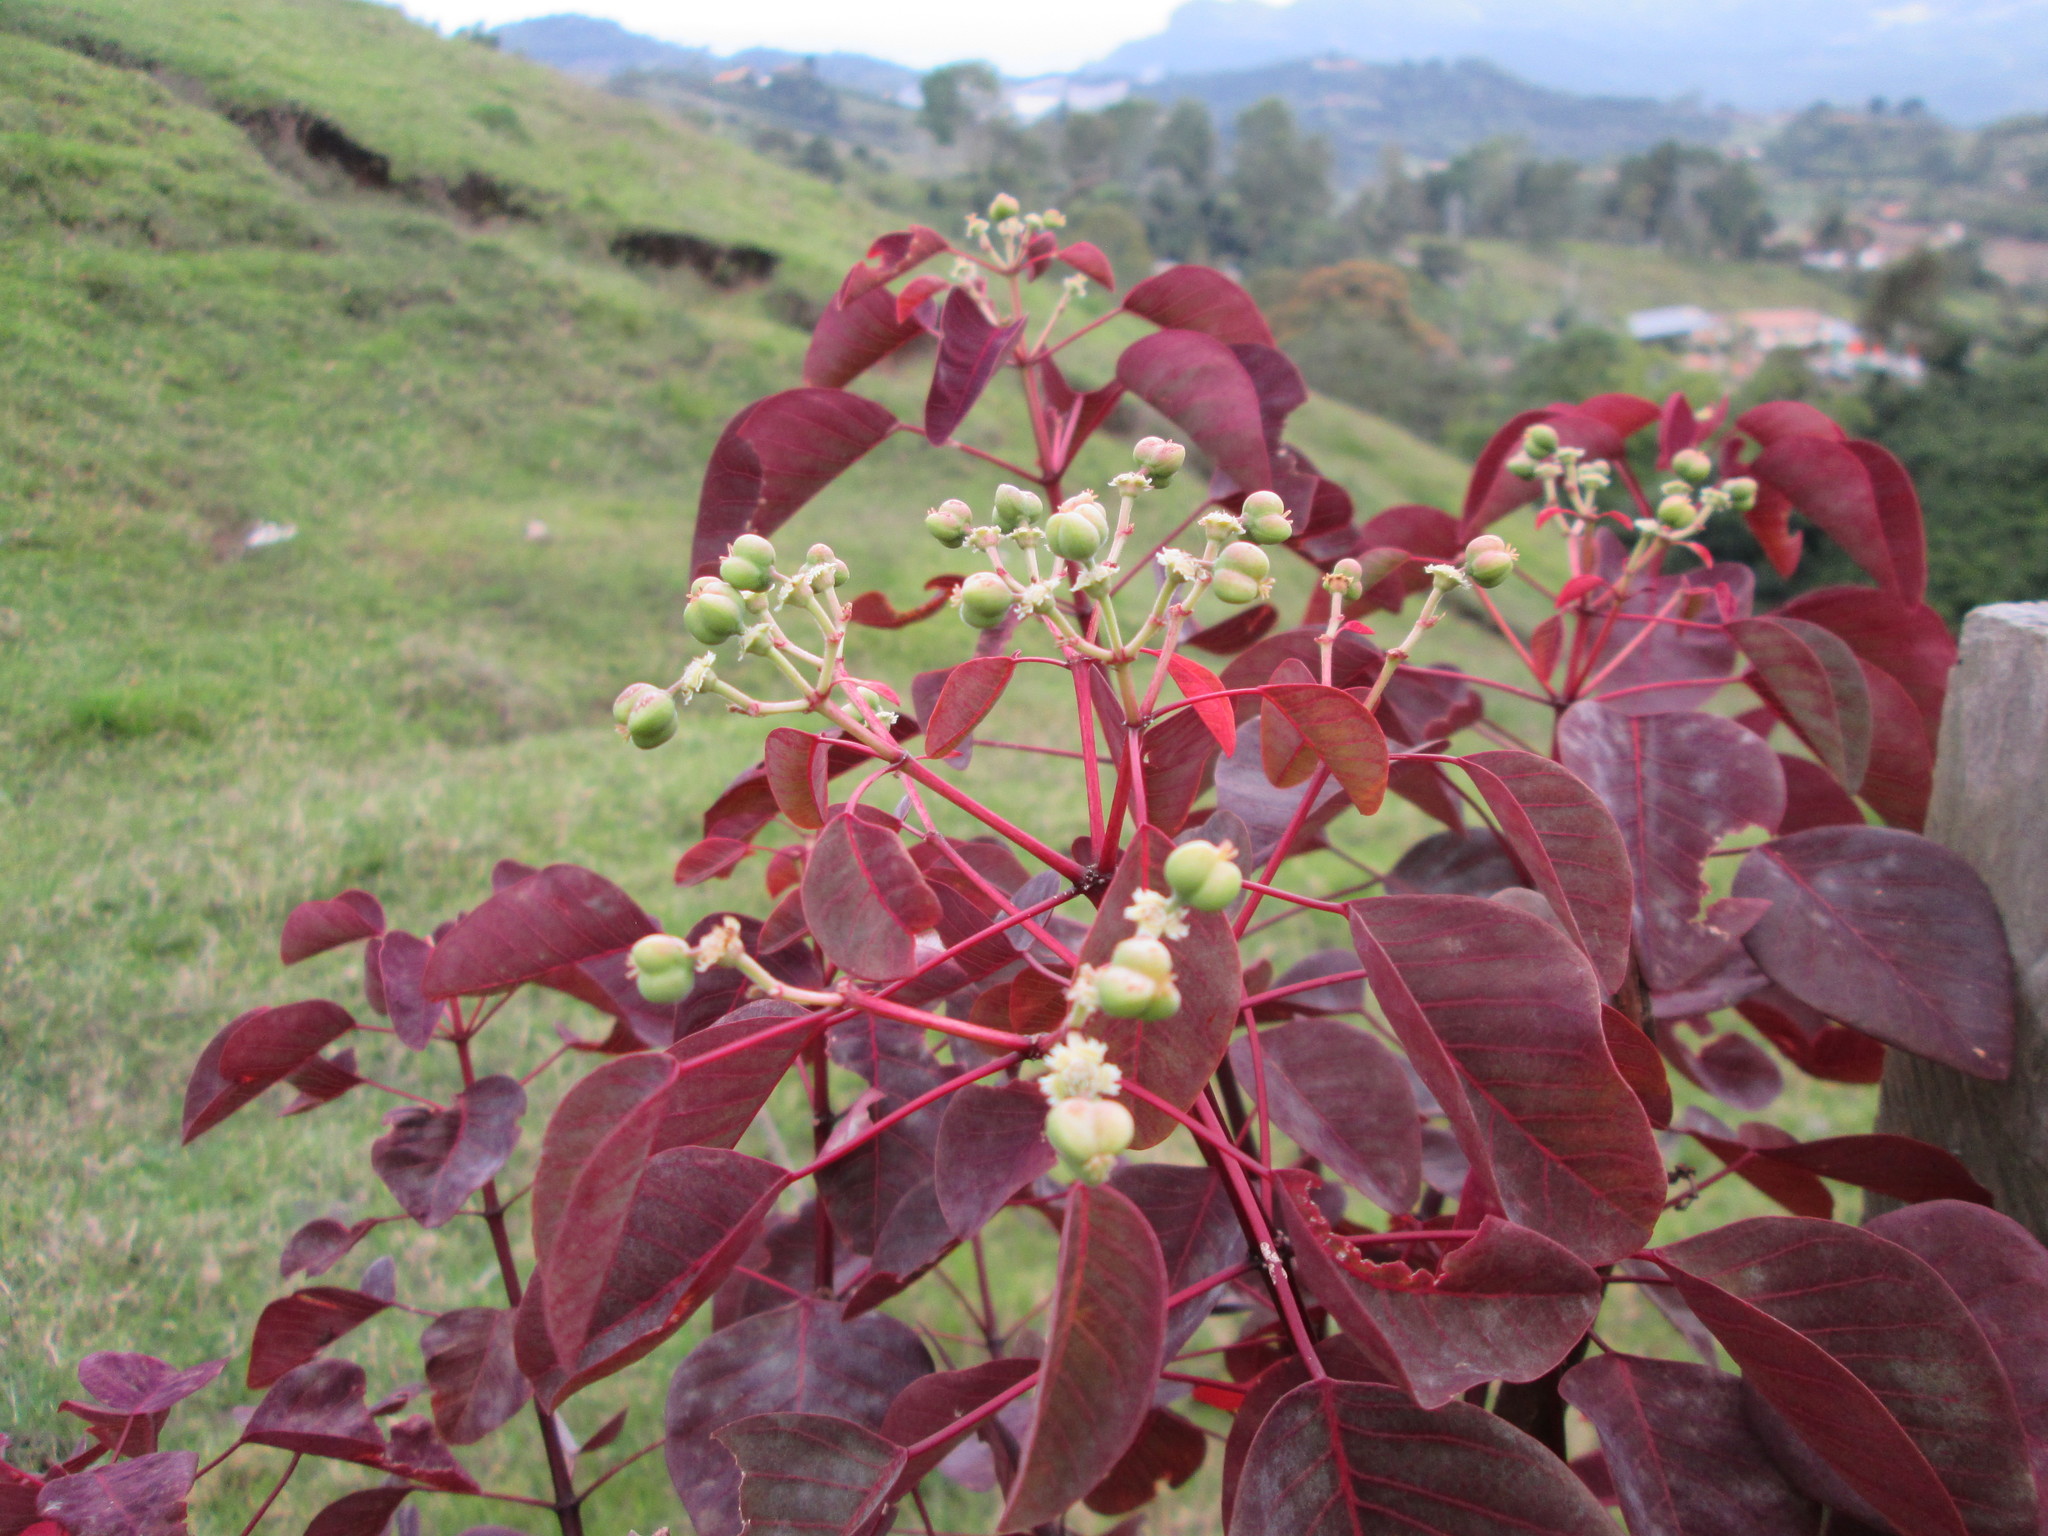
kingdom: Plantae
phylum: Tracheophyta
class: Magnoliopsida
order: Malpighiales
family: Euphorbiaceae
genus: Euphorbia
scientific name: Euphorbia cotinifolia
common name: Tropical smokebush
